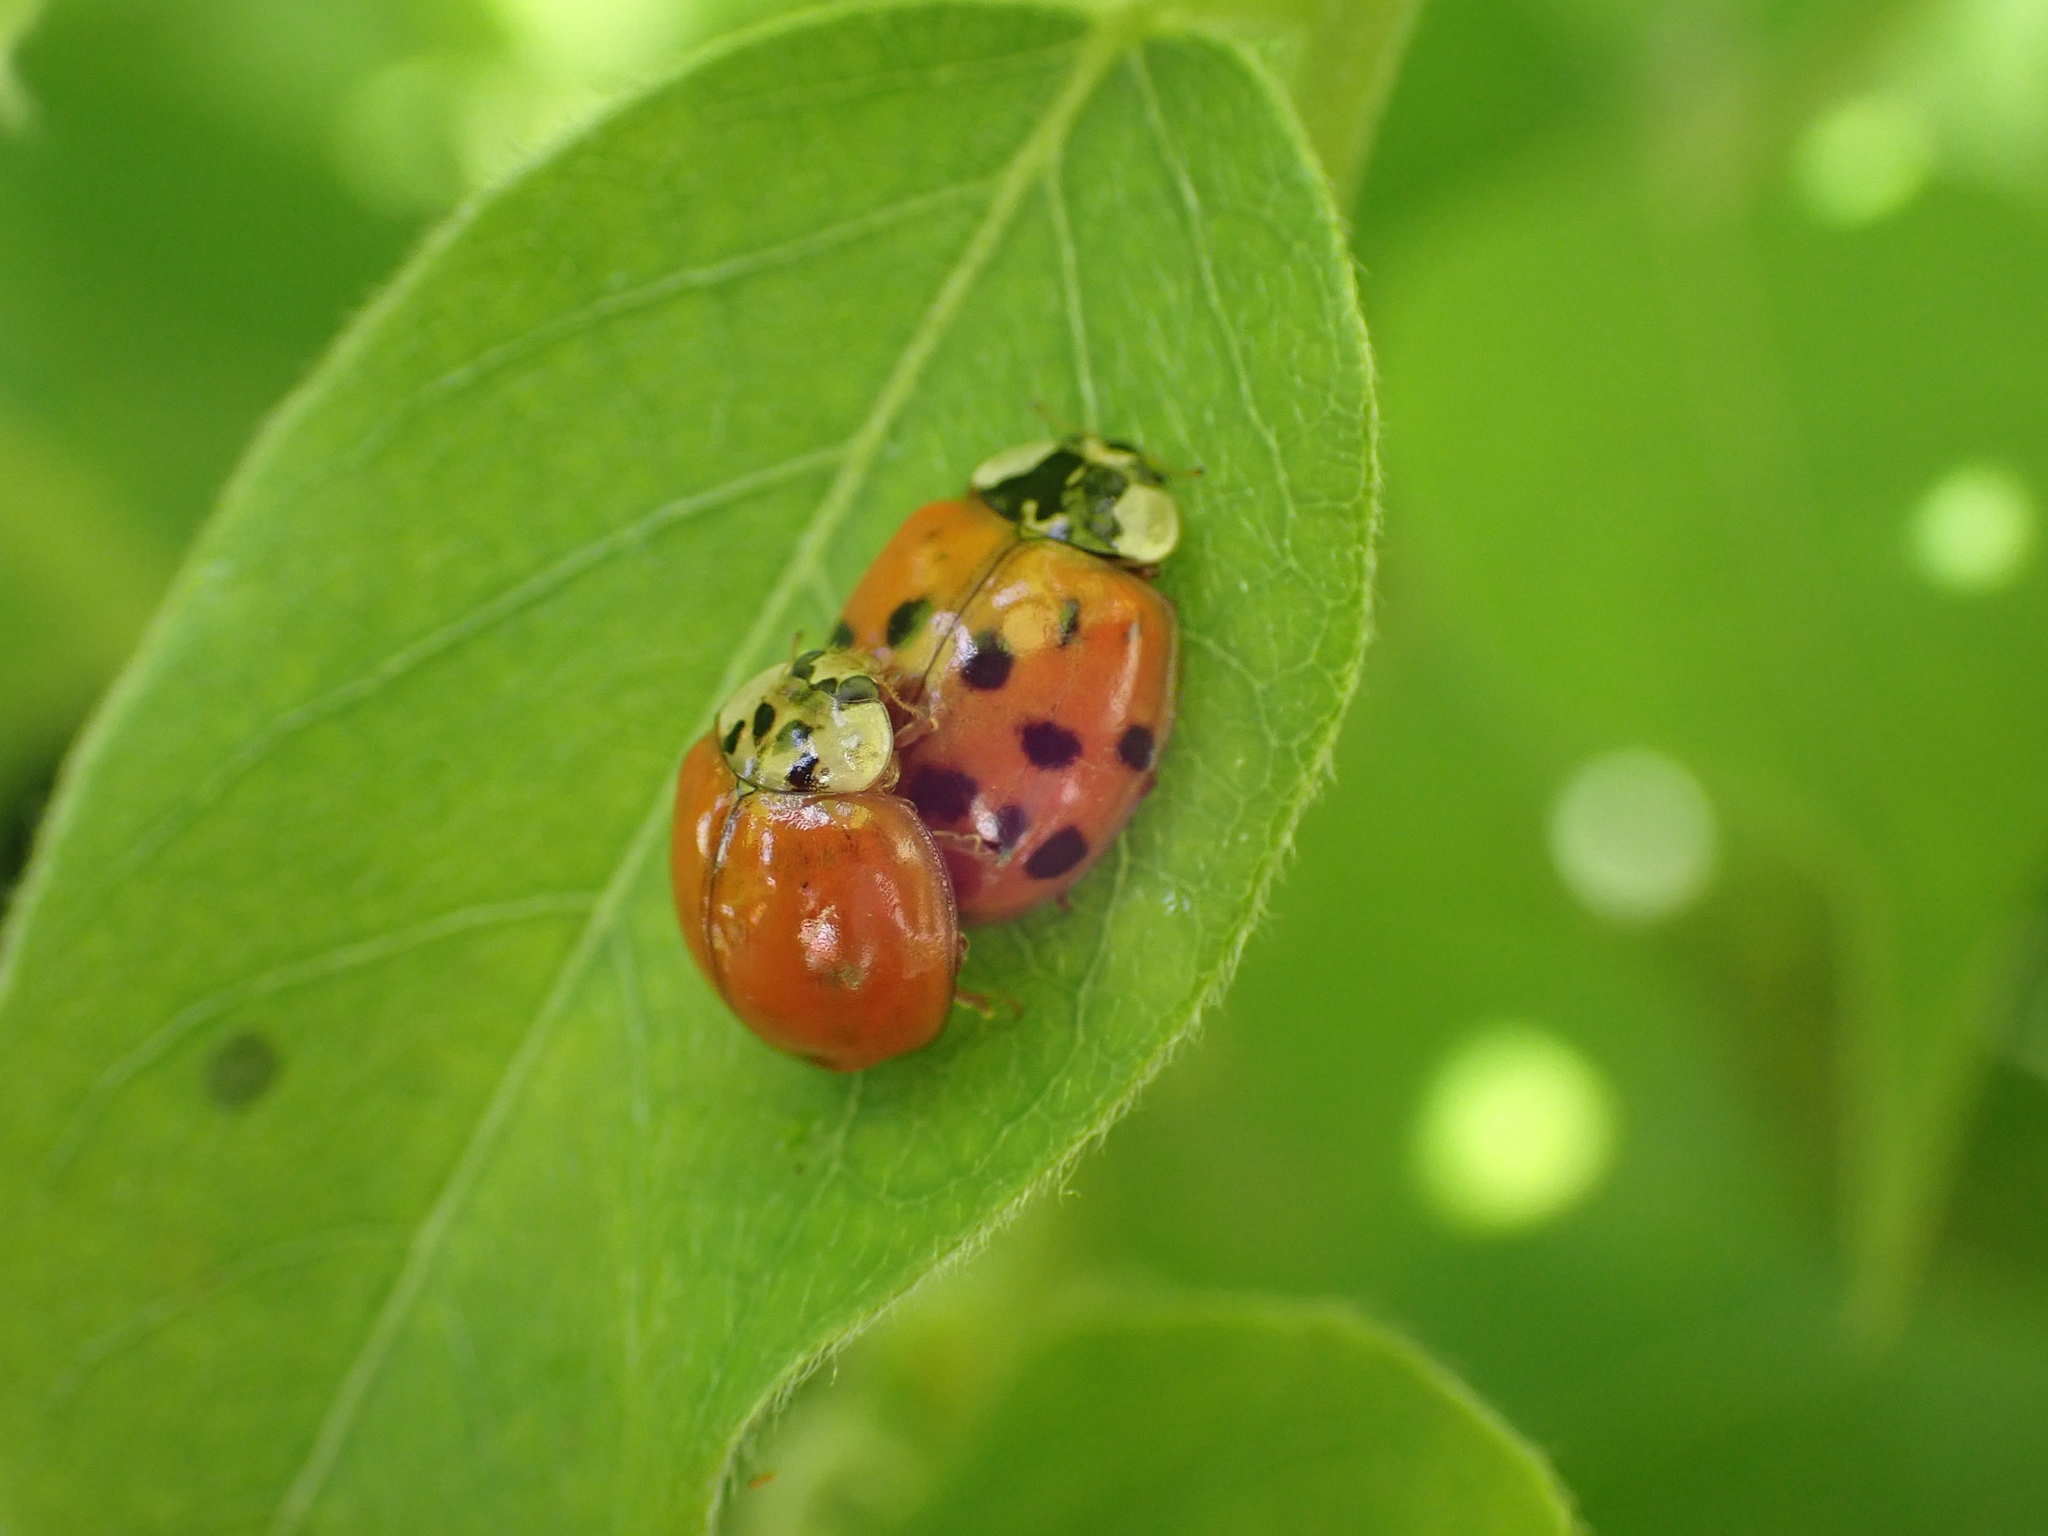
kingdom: Animalia
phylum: Arthropoda
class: Insecta
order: Coleoptera
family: Coccinellidae
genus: Harmonia
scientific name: Harmonia axyridis
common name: Harlequin ladybird
